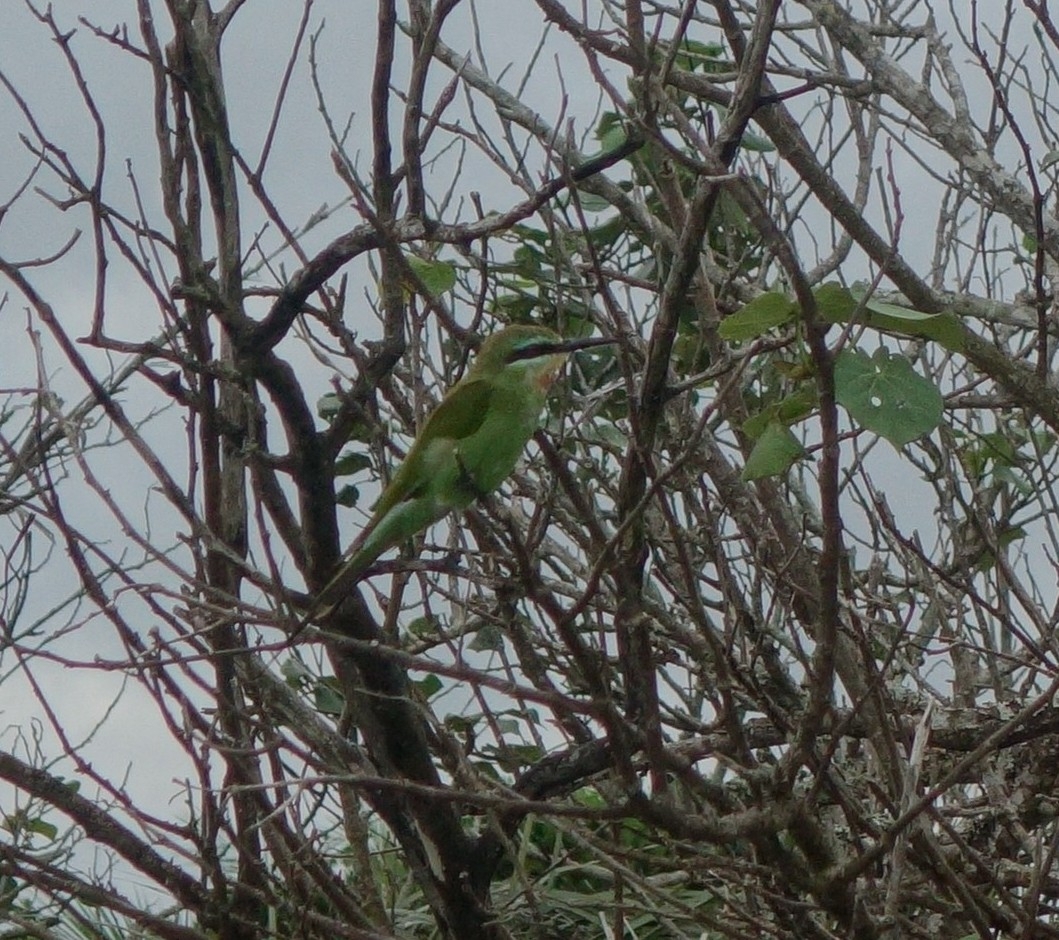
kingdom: Animalia
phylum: Chordata
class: Aves
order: Coraciiformes
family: Meropidae
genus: Merops
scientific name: Merops persicus
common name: Blue-cheeked bee-eater
